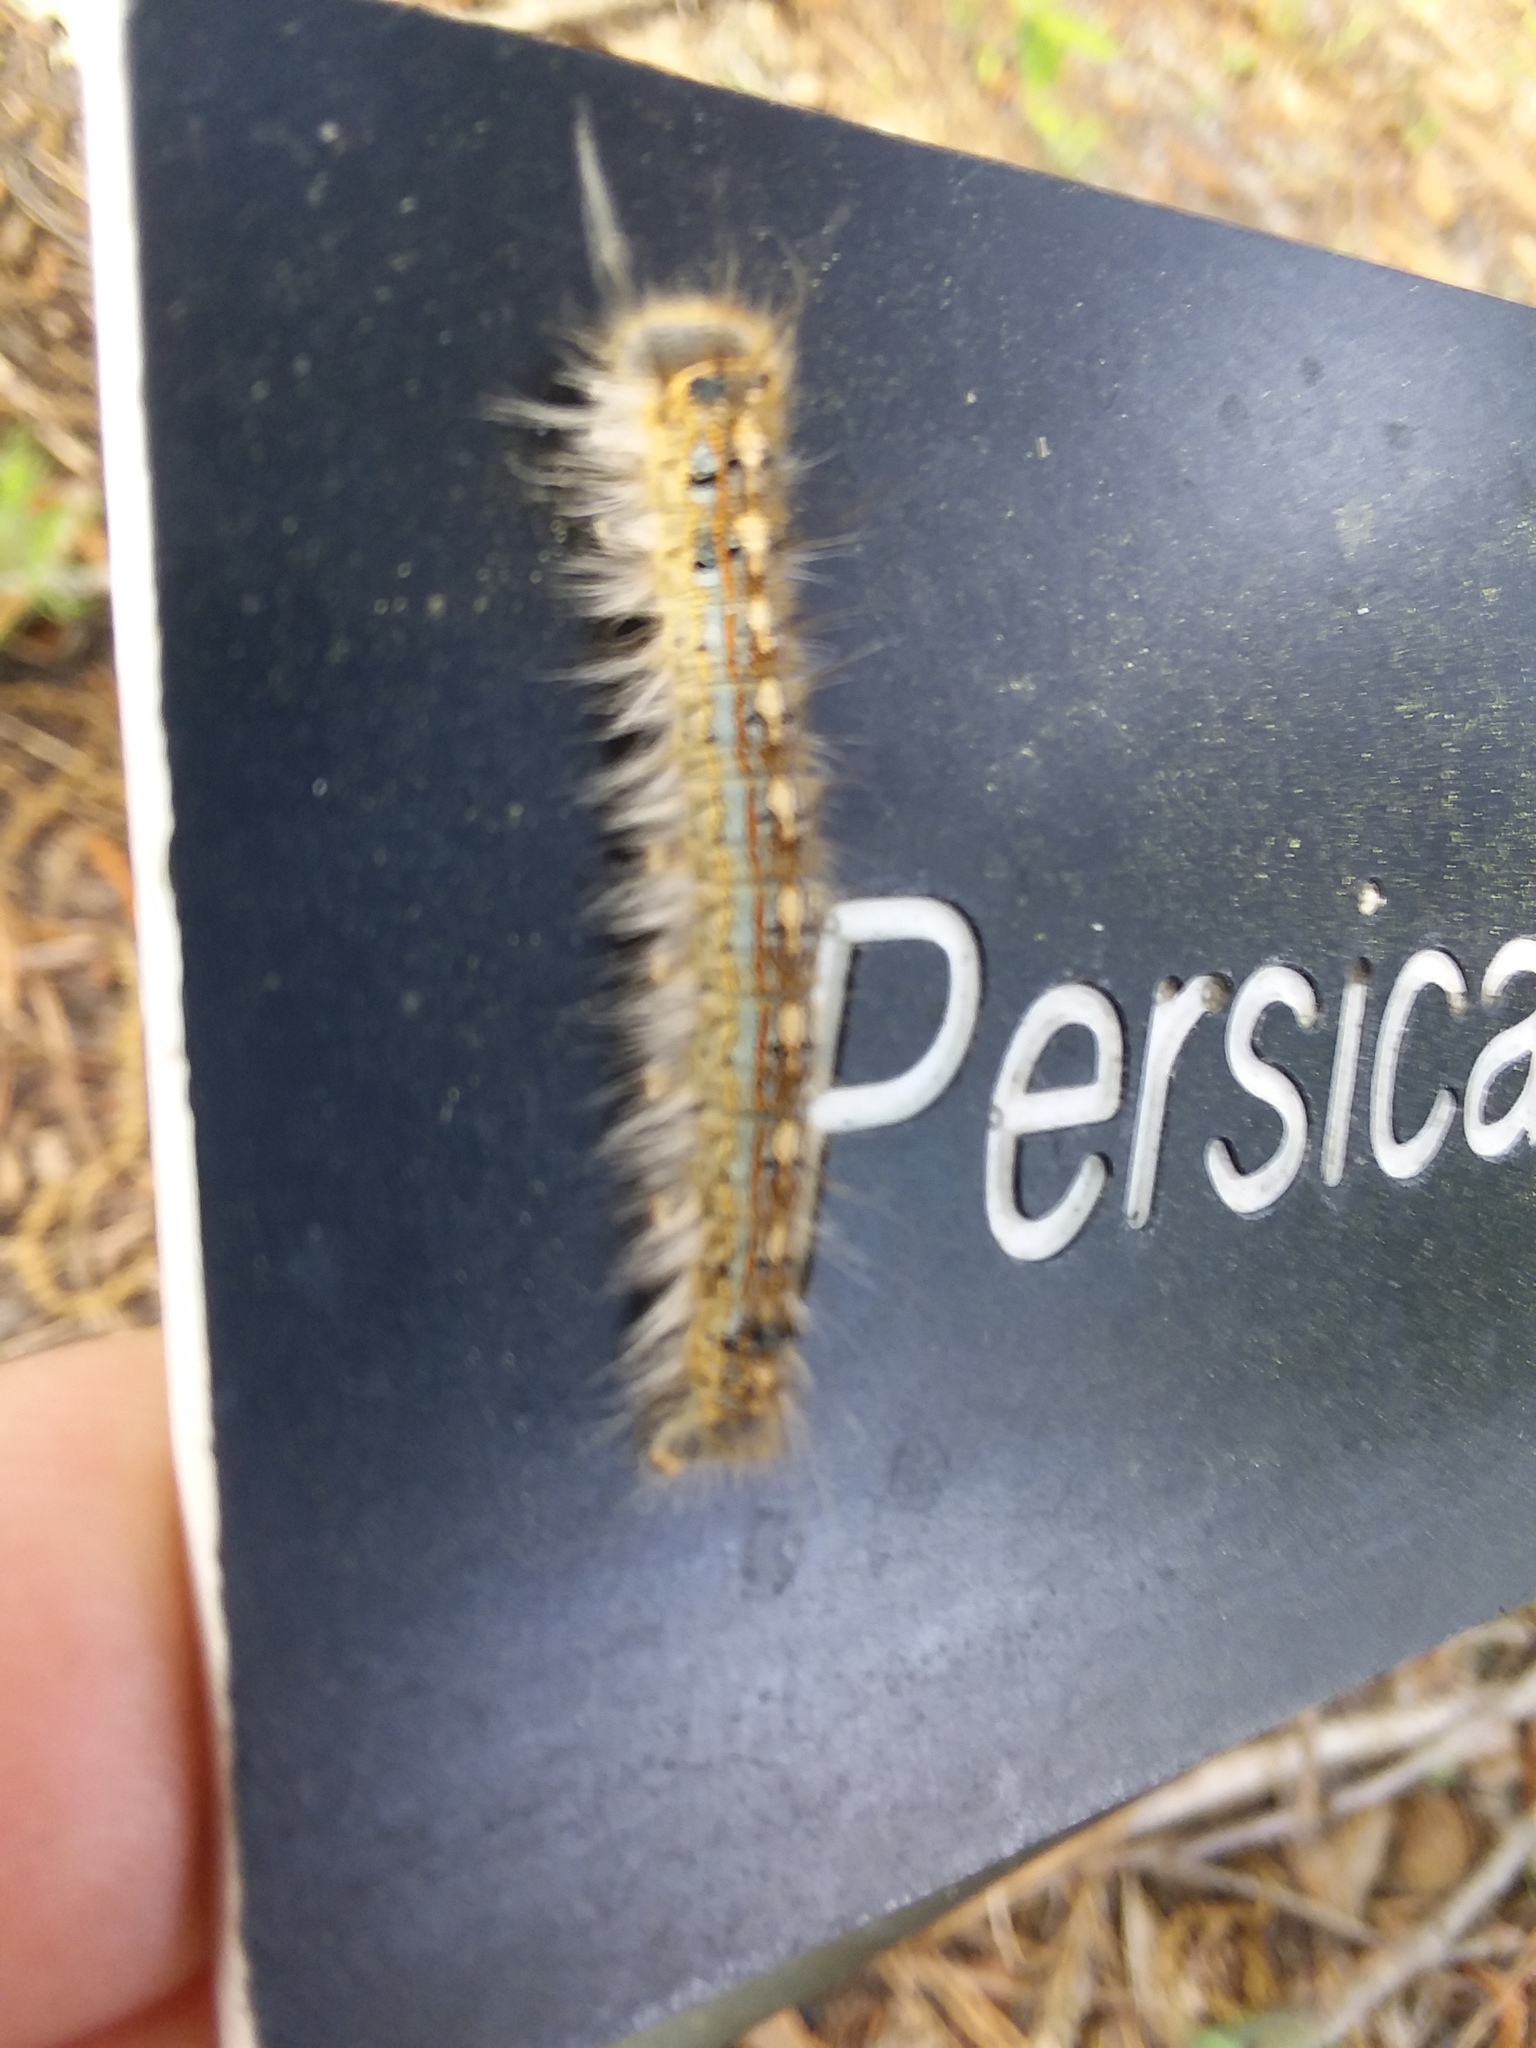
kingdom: Animalia
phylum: Arthropoda
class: Insecta
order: Lepidoptera
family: Lasiocampidae
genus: Malacosoma
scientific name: Malacosoma disstria
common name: Forest tent caterpillar
